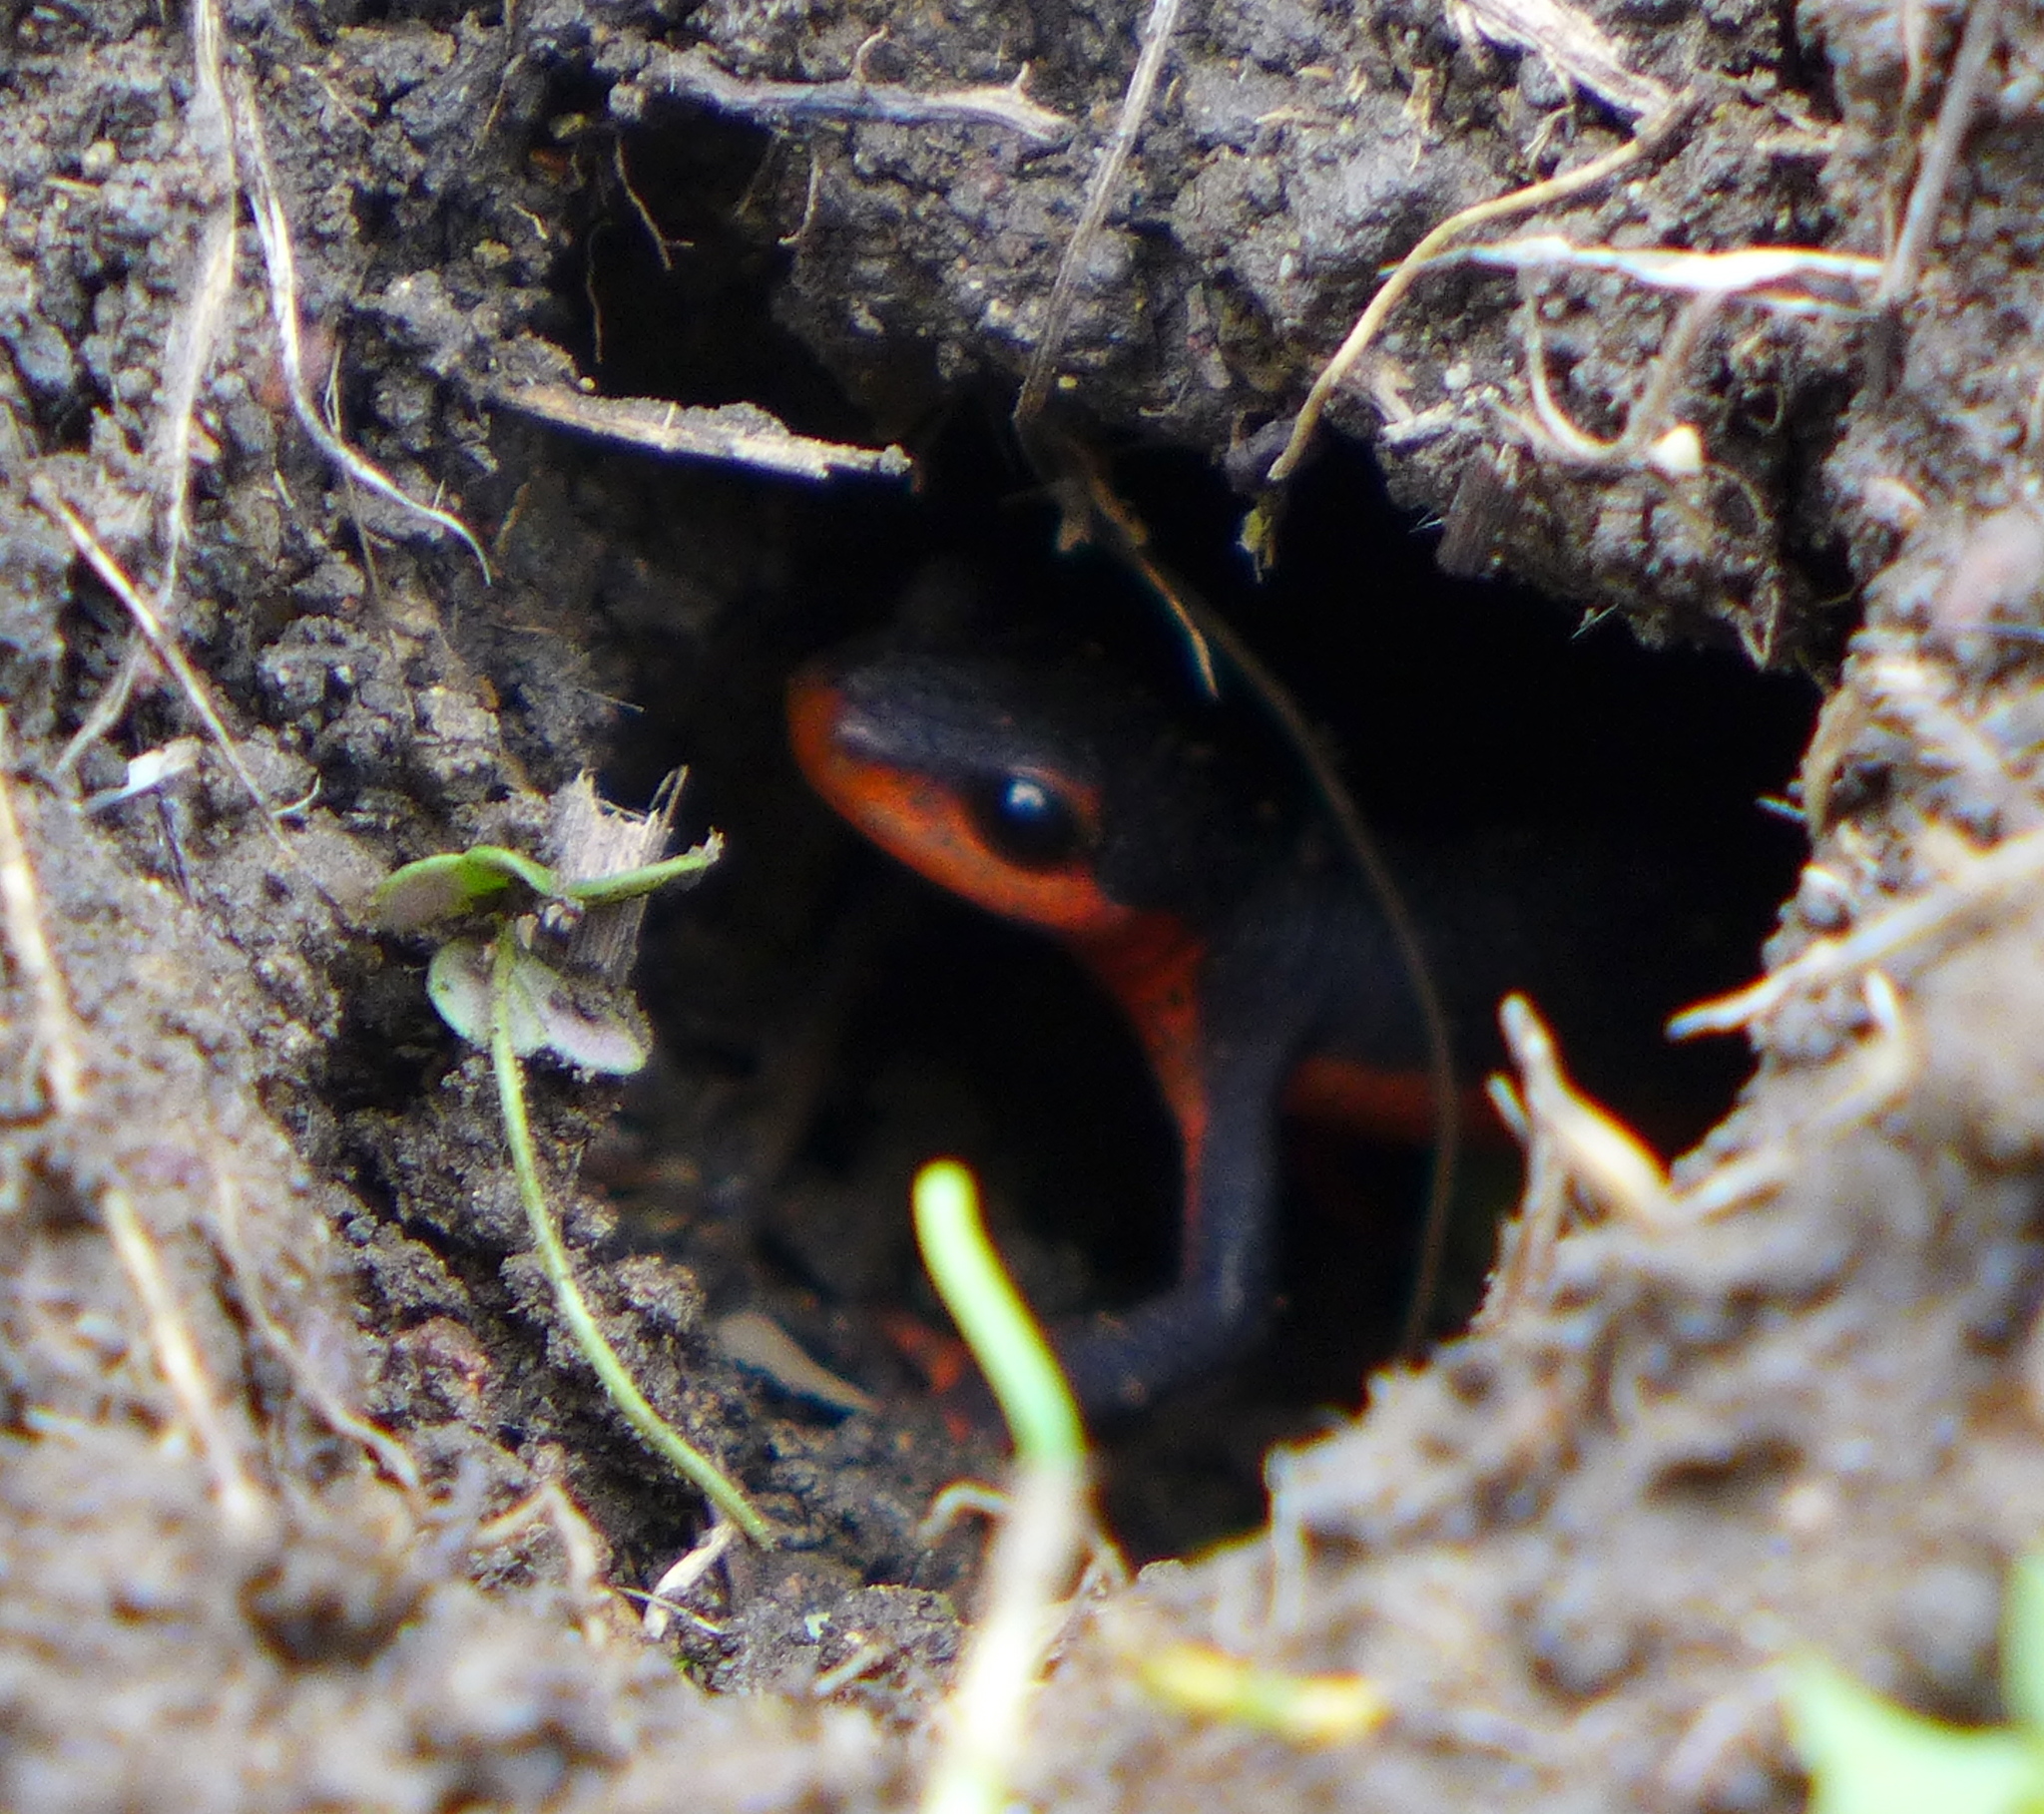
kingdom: Animalia
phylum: Chordata
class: Amphibia
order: Caudata
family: Salamandridae
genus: Taricha
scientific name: Taricha rivularis
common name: Red-bellied newt
